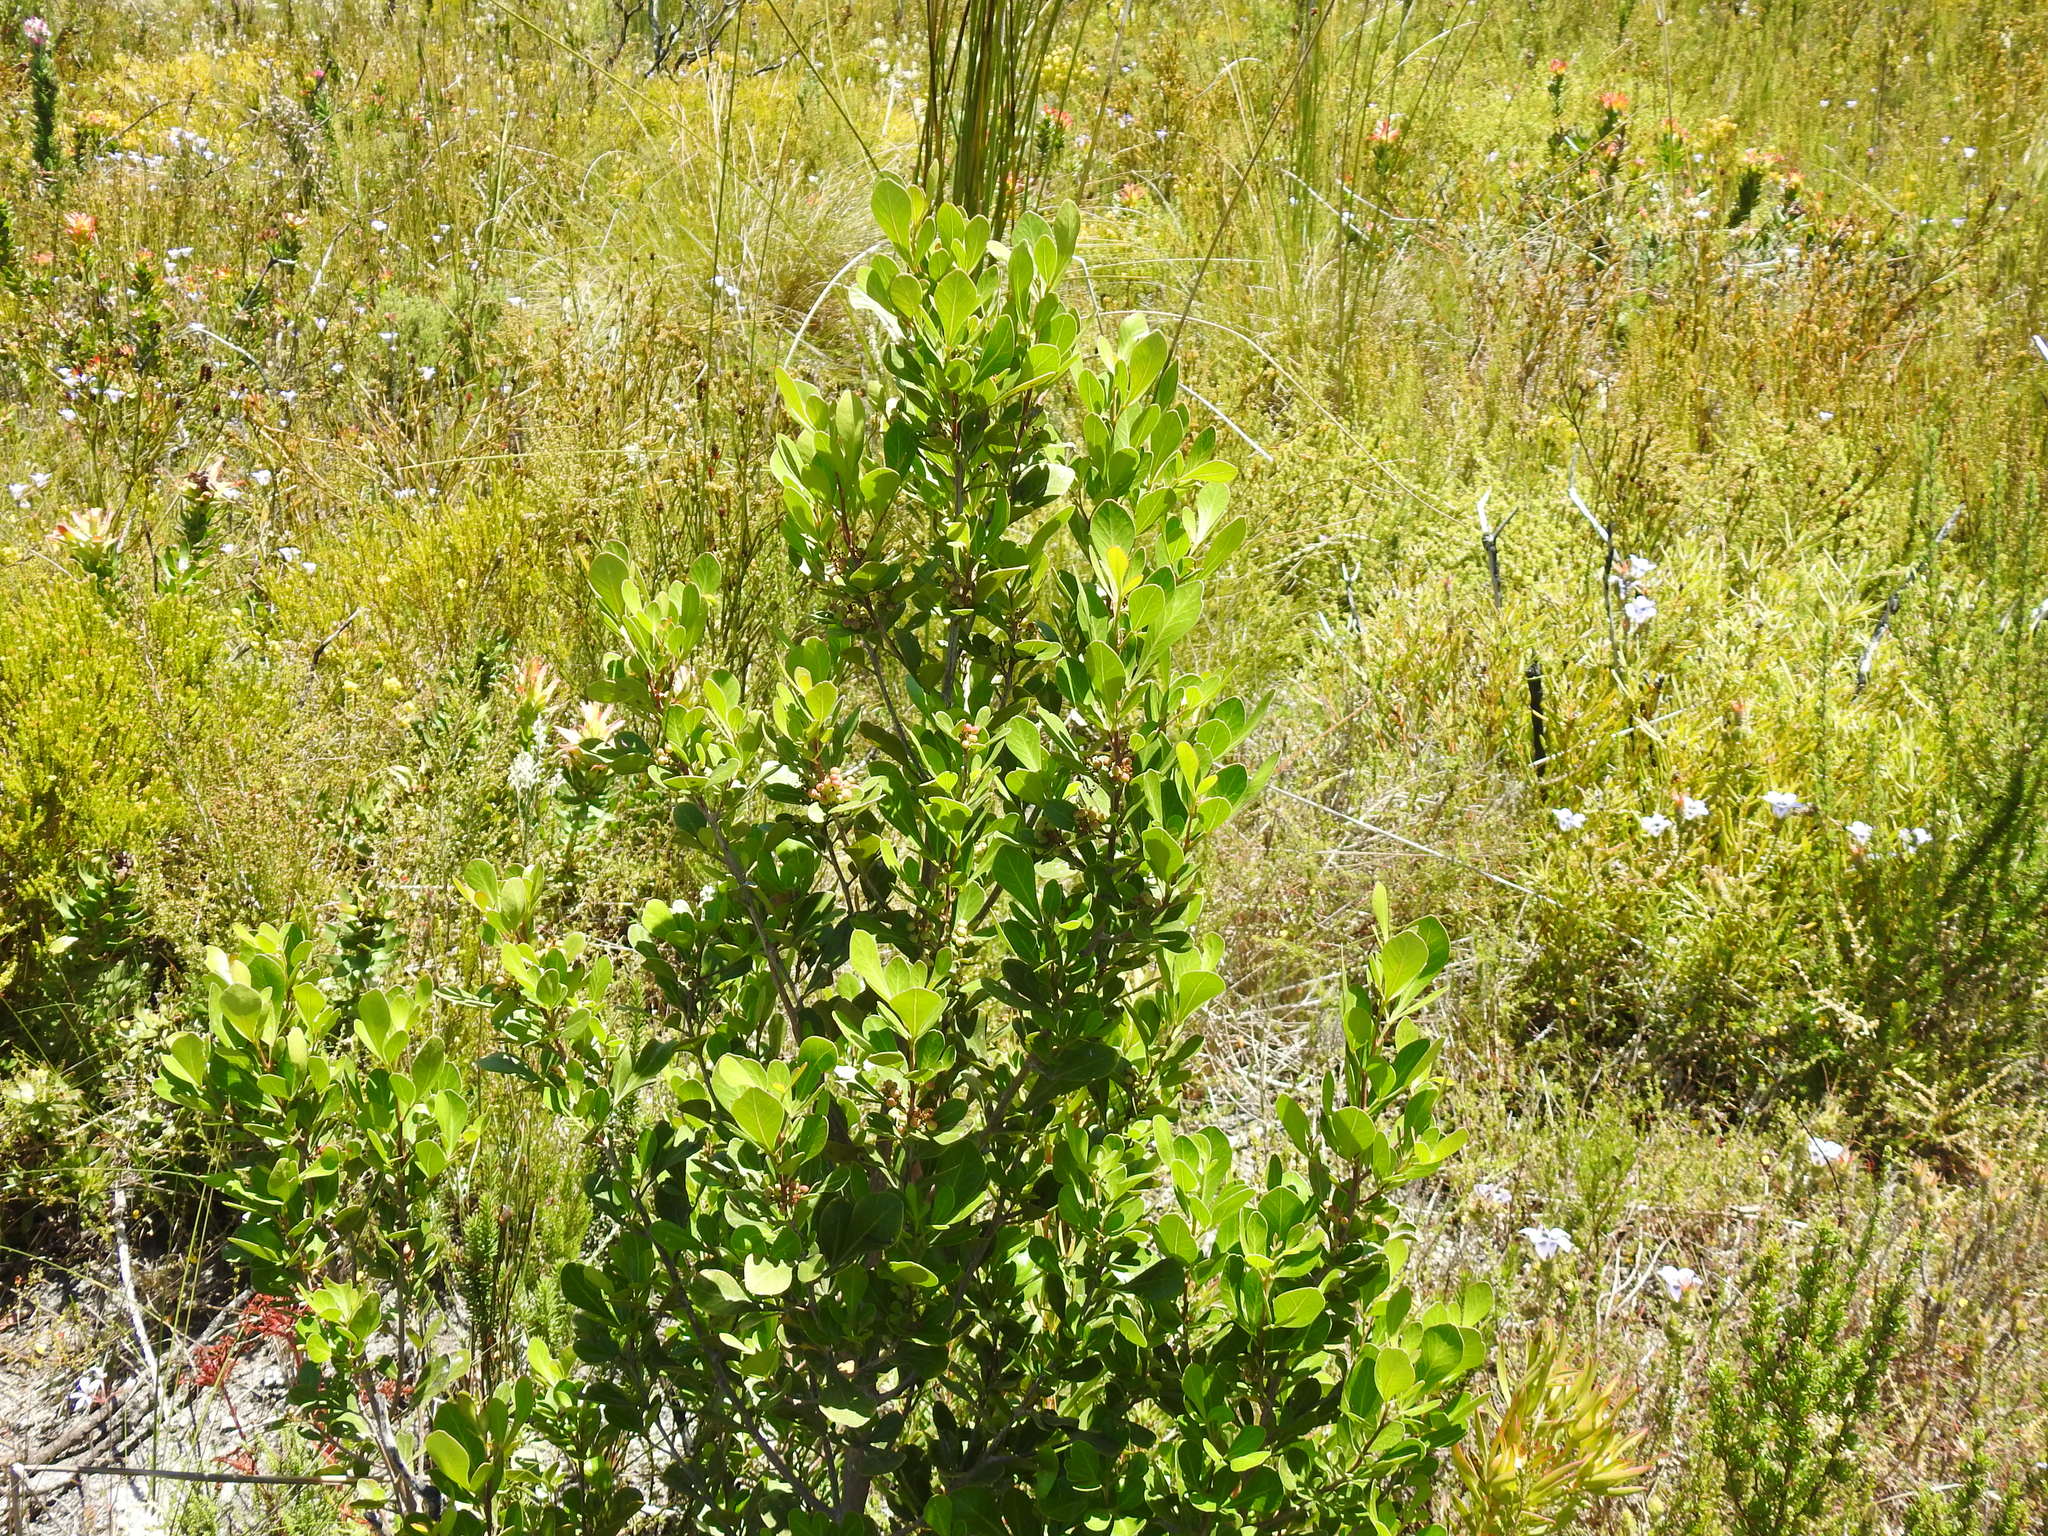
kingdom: Plantae
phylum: Tracheophyta
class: Magnoliopsida
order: Sapindales
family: Anacardiaceae
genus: Searsia
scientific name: Searsia lucida
